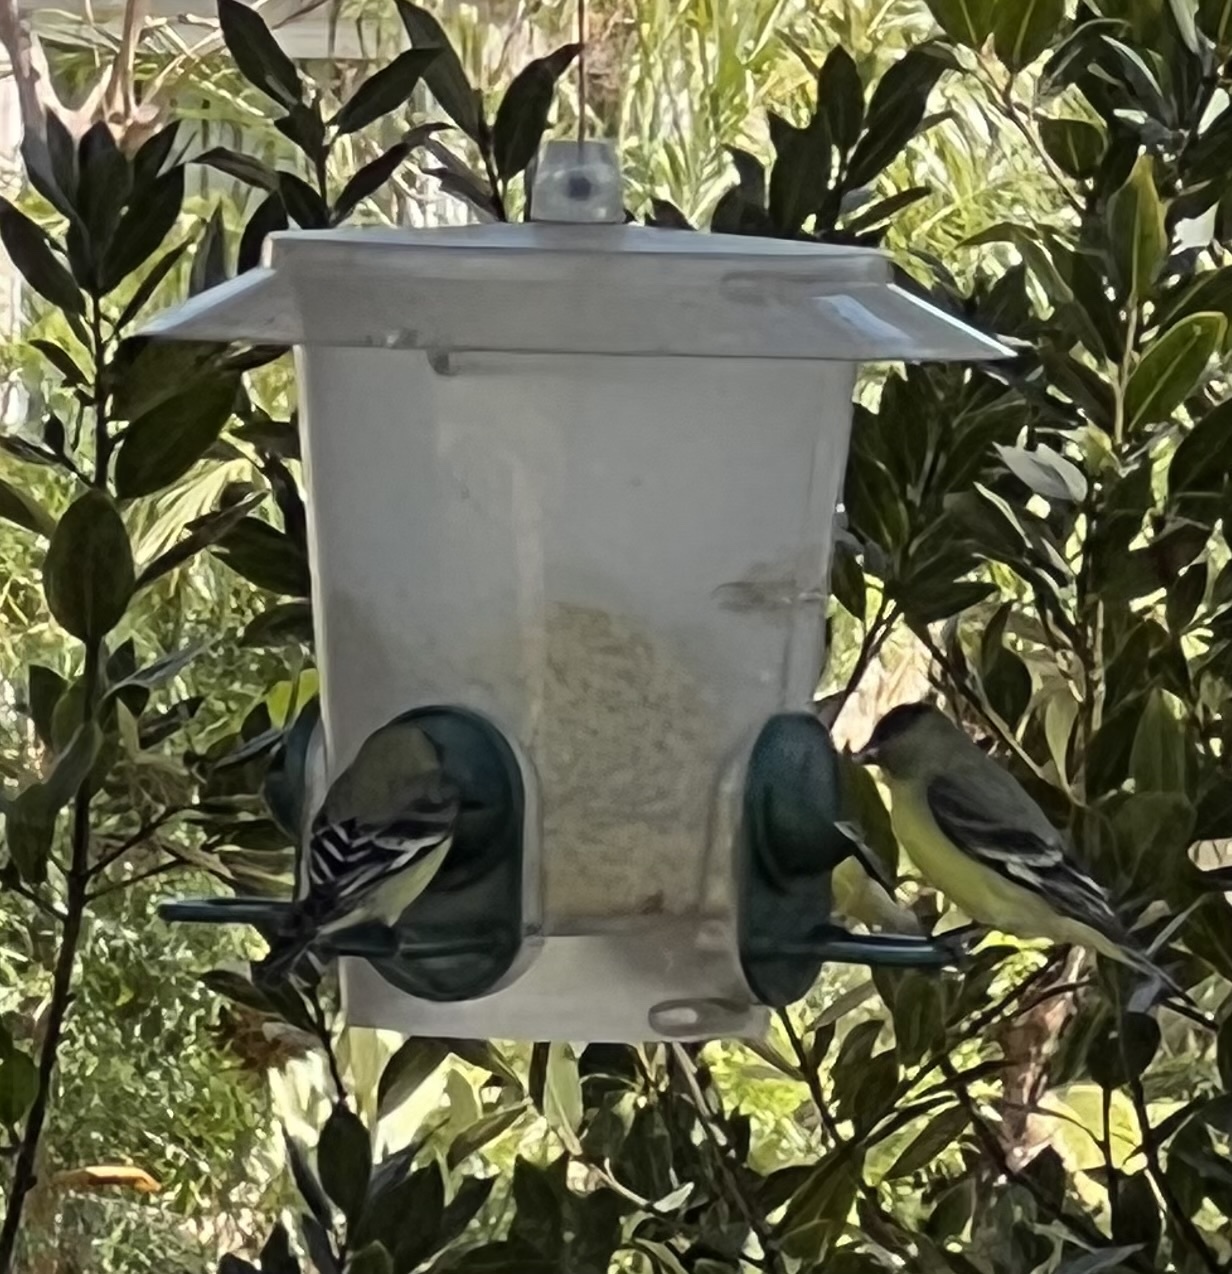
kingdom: Animalia
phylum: Chordata
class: Aves
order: Passeriformes
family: Fringillidae
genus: Spinus
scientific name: Spinus psaltria
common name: Lesser goldfinch
